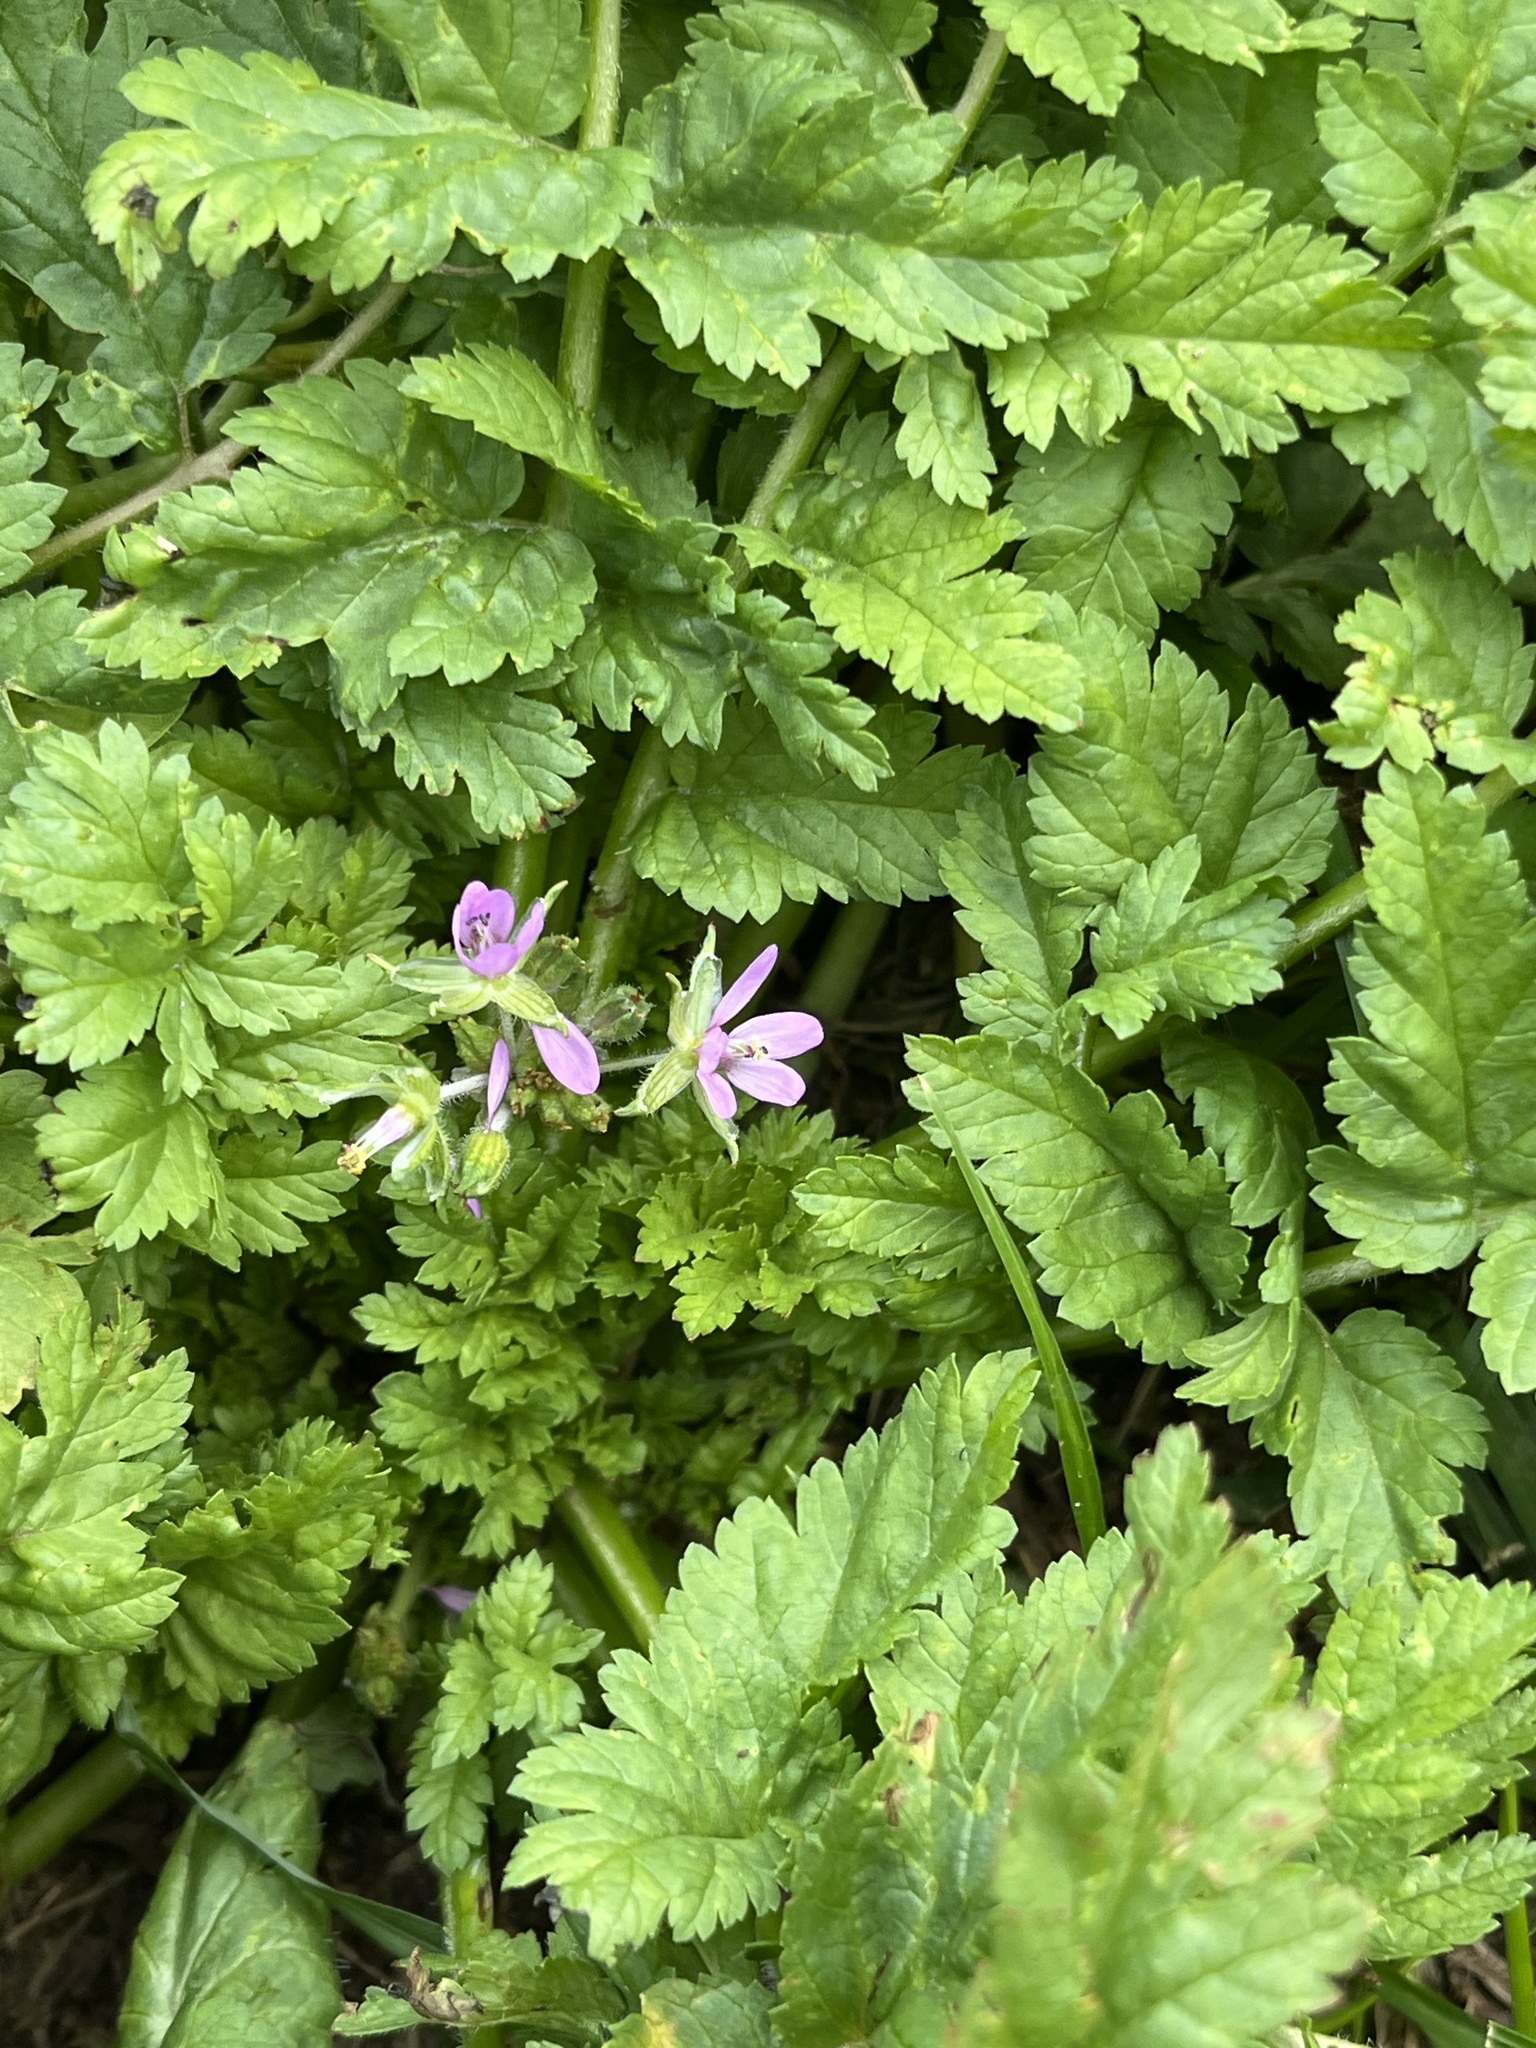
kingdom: Plantae
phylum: Tracheophyta
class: Magnoliopsida
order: Geraniales
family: Geraniaceae
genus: Erodium
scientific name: Erodium moschatum
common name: Musk stork's-bill
